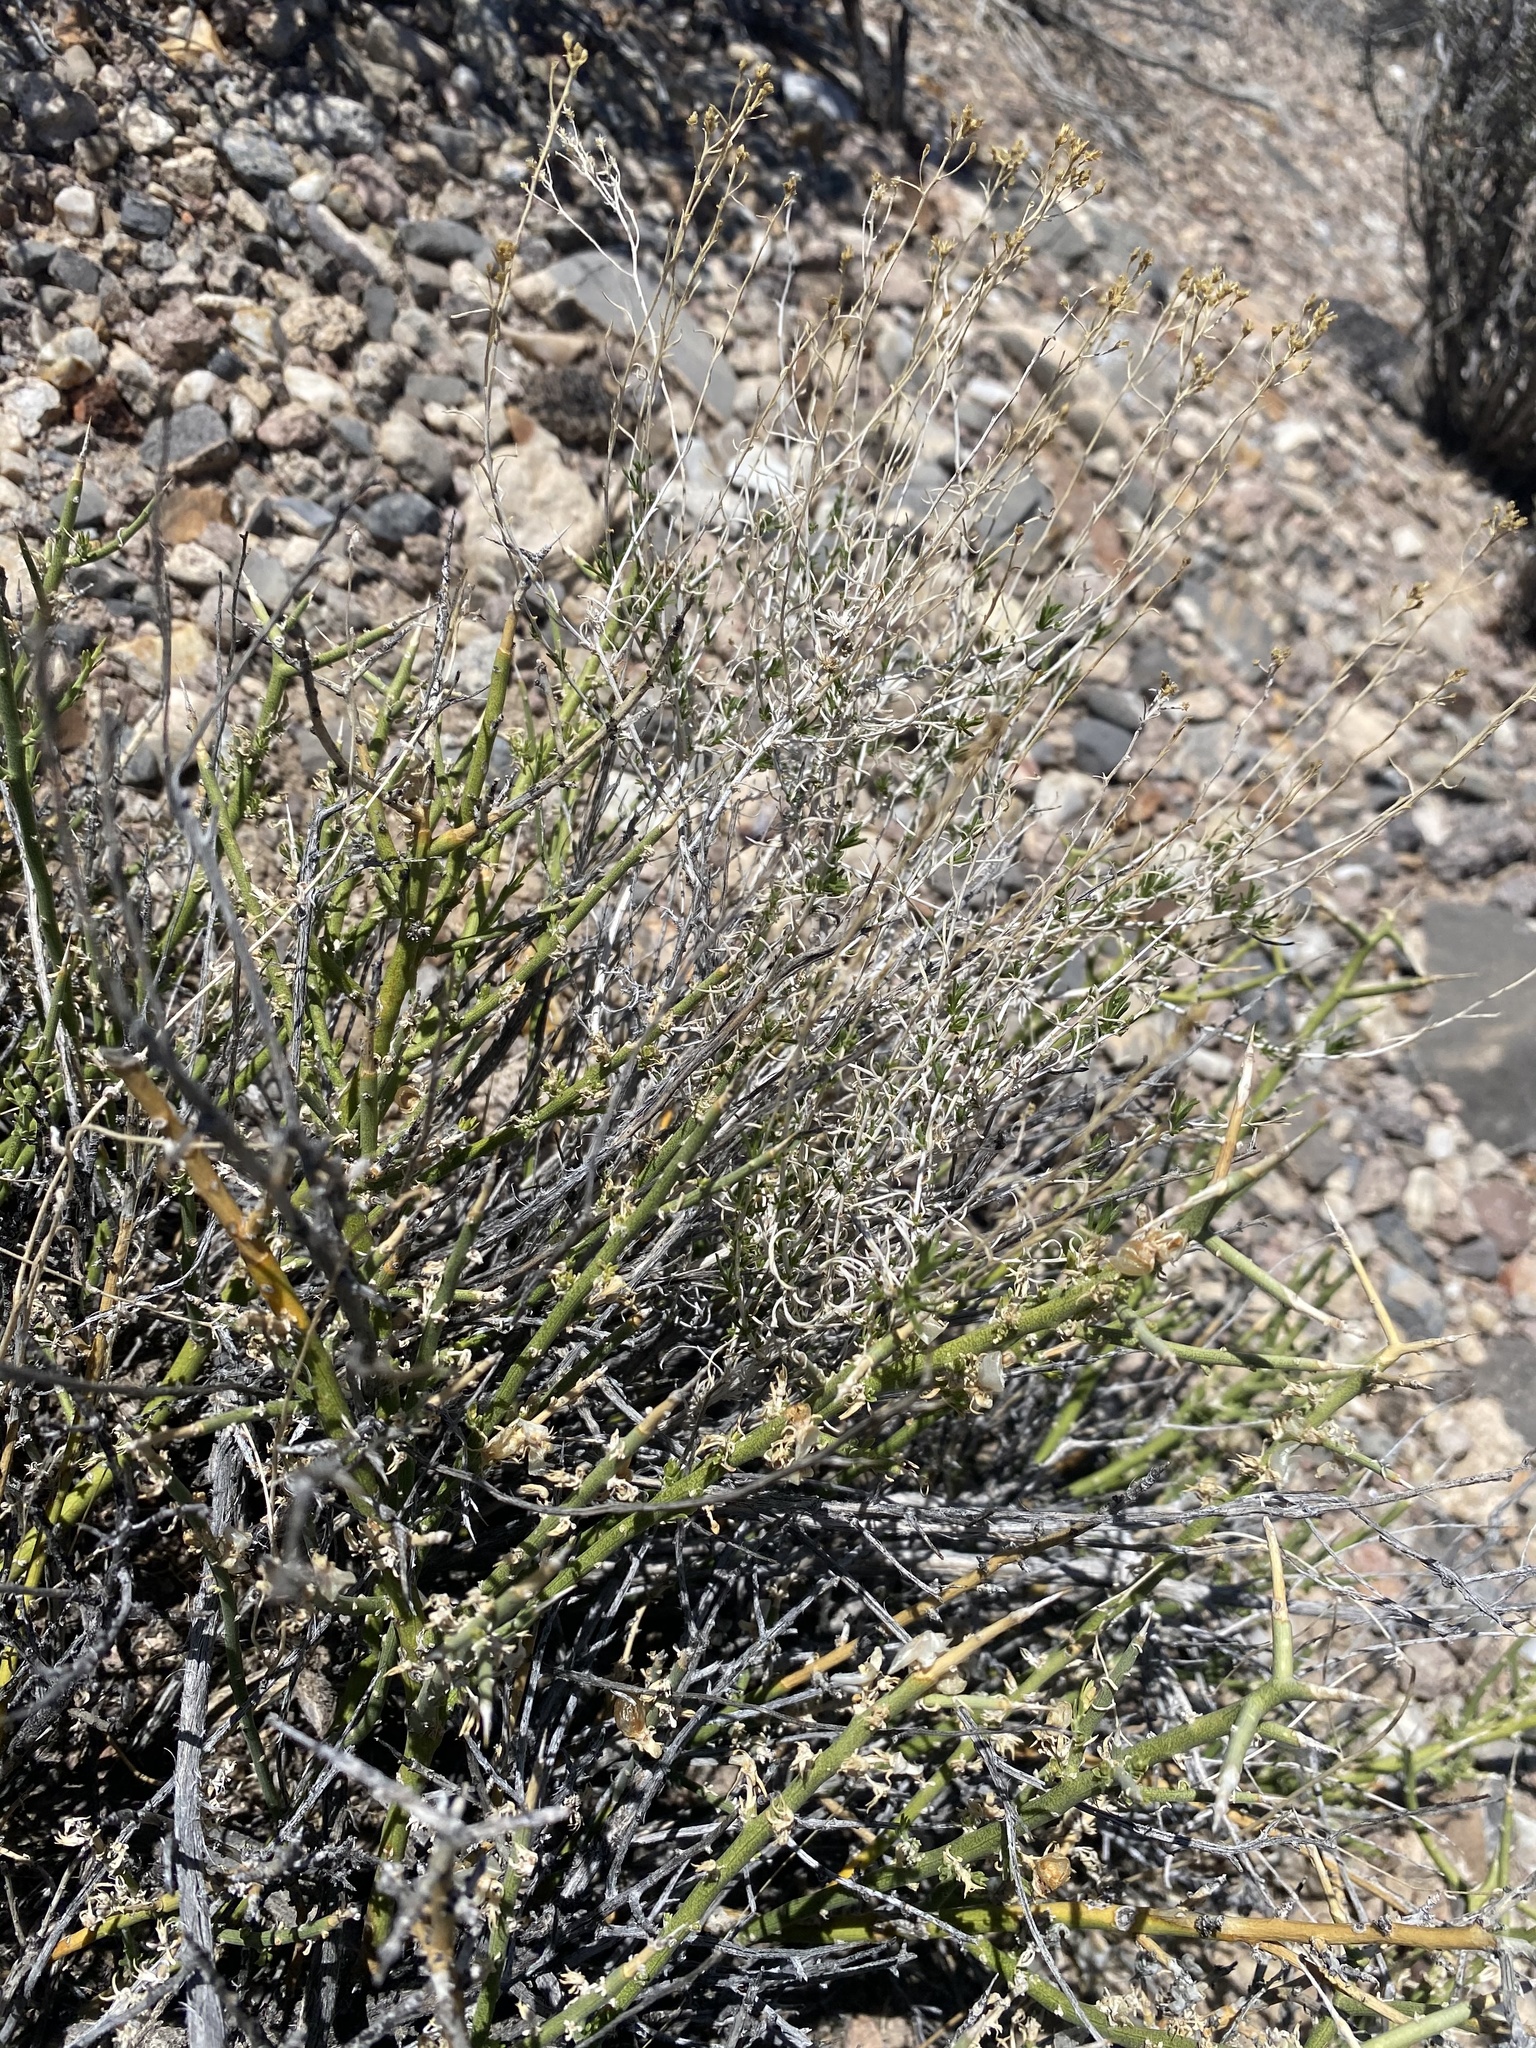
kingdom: Plantae
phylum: Tracheophyta
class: Magnoliopsida
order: Lamiales
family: Oleaceae
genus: Menodora
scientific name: Menodora spinescens
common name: Spiny menodora
